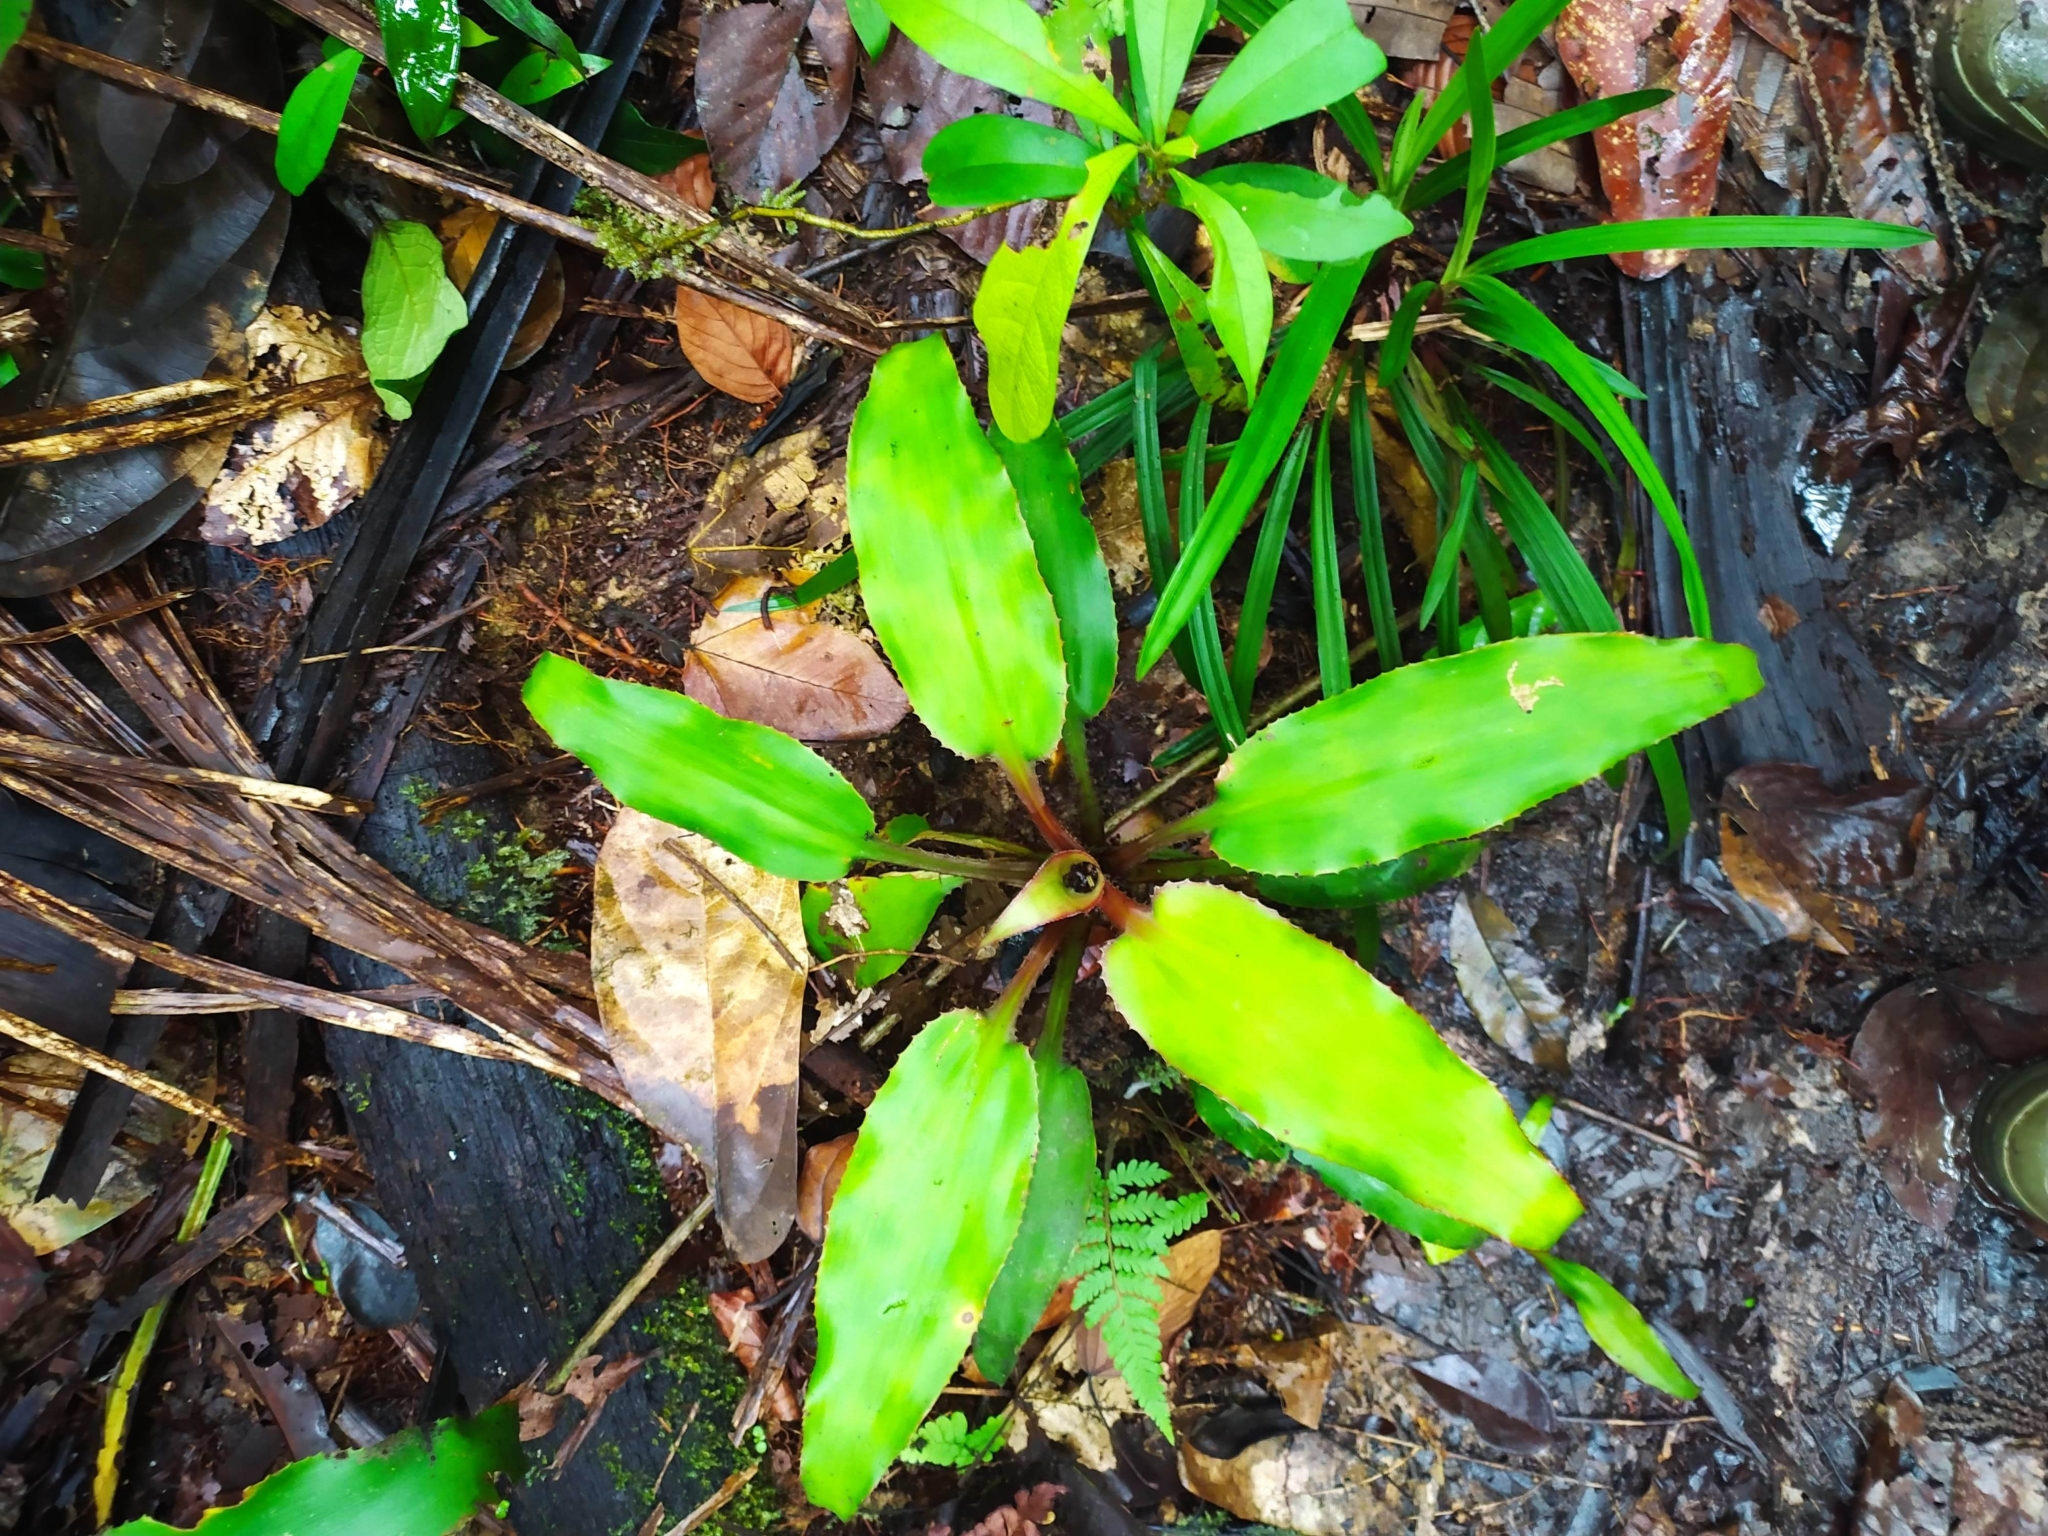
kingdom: Plantae
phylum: Tracheophyta
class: Liliopsida
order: Poales
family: Bromeliaceae
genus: Disteganthus
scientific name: Disteganthus basilateralis
